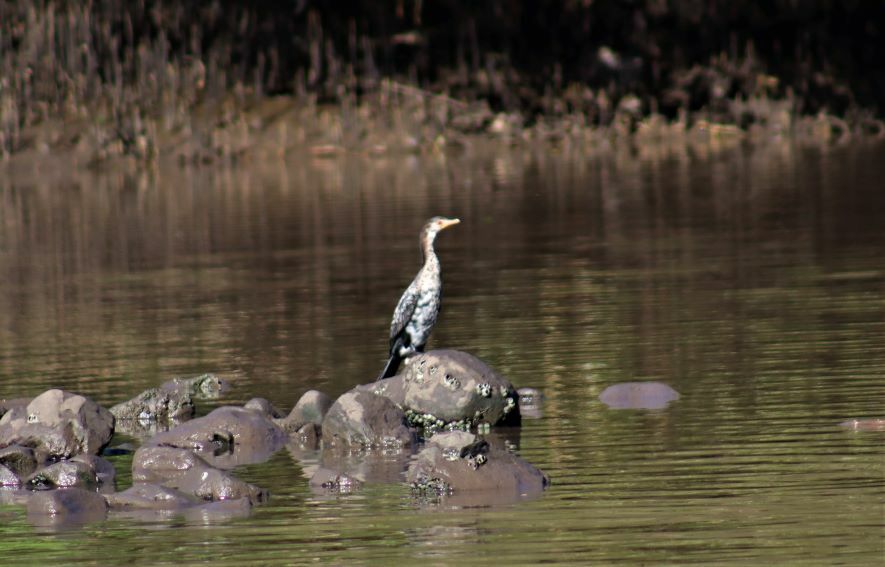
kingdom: Animalia
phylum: Chordata
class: Aves
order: Suliformes
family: Phalacrocoracidae
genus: Microcarbo
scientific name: Microcarbo africanus
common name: Long-tailed cormorant
